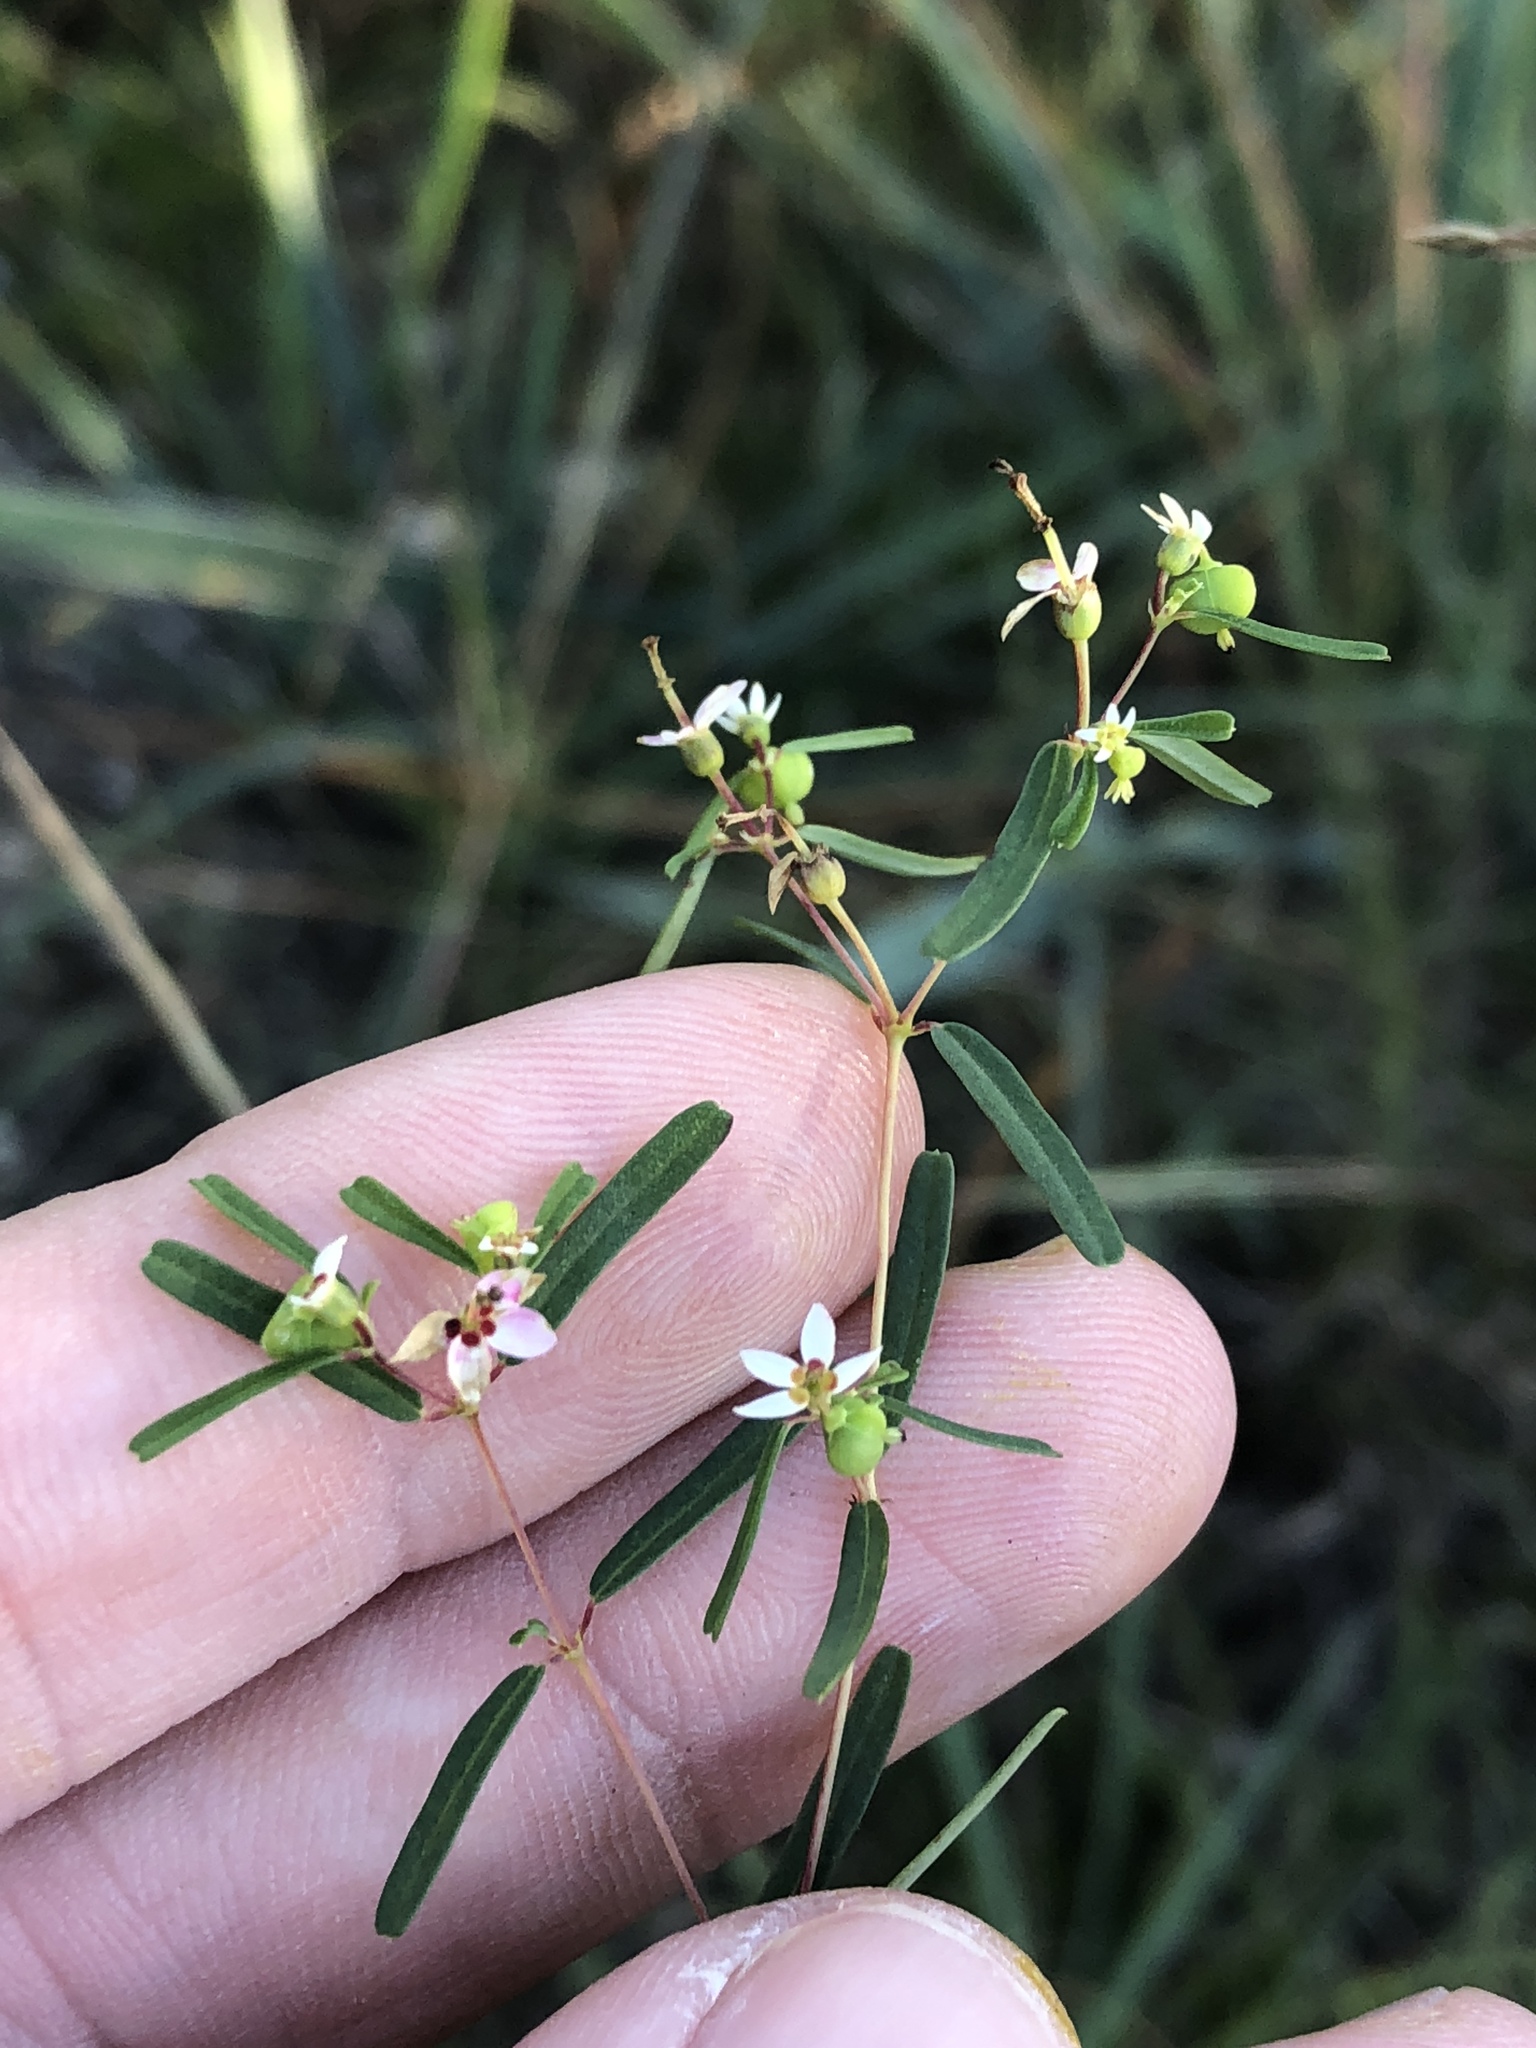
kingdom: Plantae
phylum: Tracheophyta
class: Magnoliopsida
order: Malpighiales
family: Euphorbiaceae
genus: Euphorbia
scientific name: Euphorbia missurica
